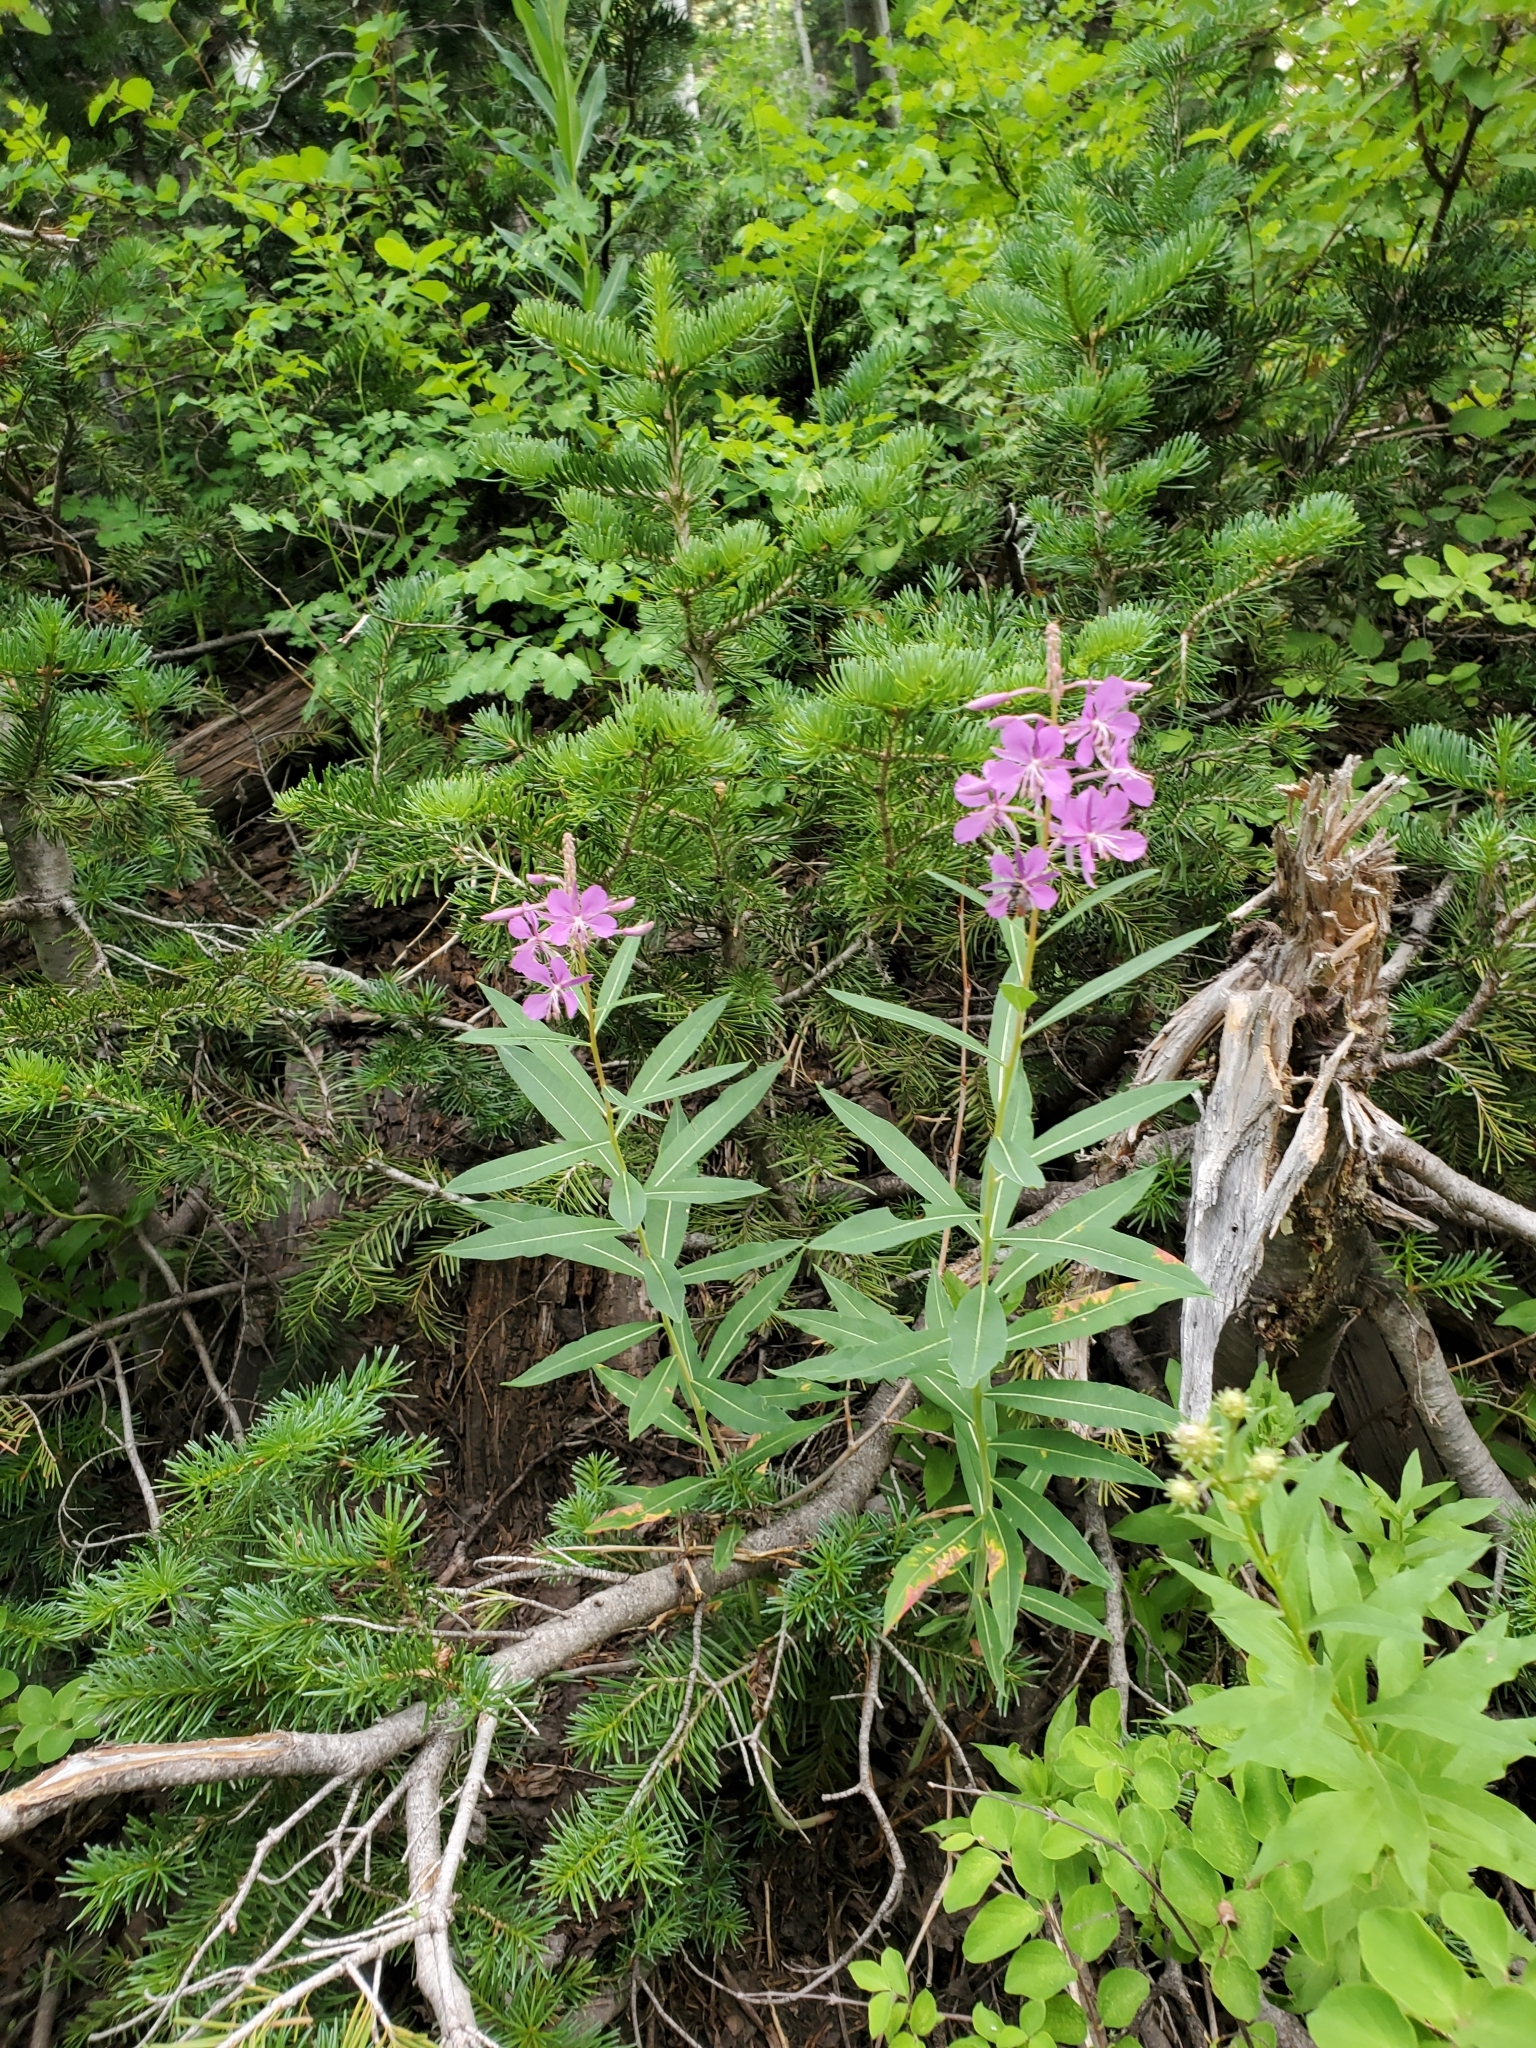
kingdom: Plantae
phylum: Tracheophyta
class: Magnoliopsida
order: Myrtales
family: Onagraceae
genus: Chamaenerion
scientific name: Chamaenerion angustifolium
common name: Fireweed
